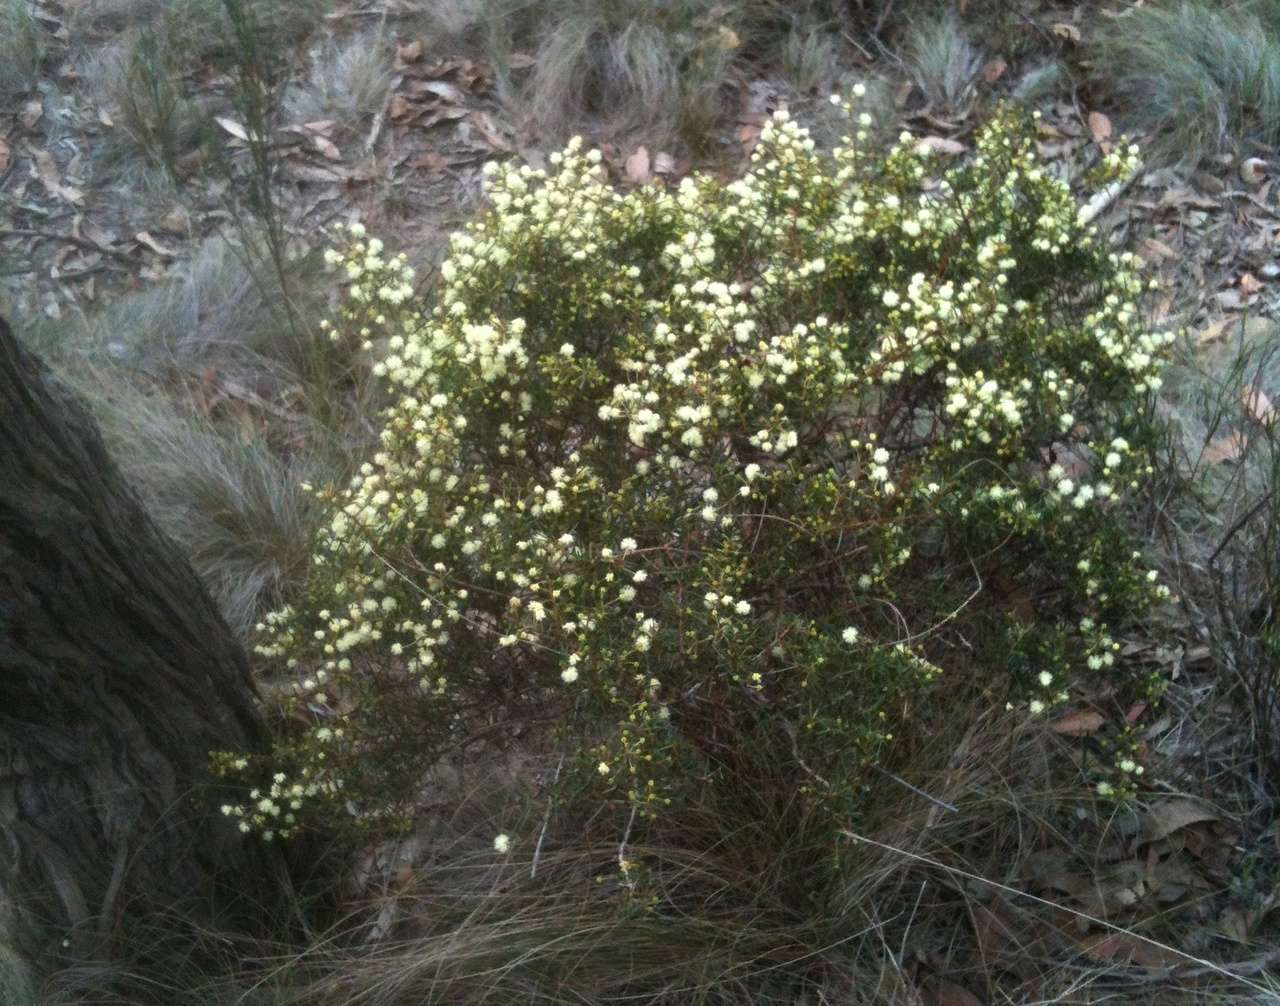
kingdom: Plantae
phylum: Tracheophyta
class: Magnoliopsida
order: Fabales
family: Fabaceae
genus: Acacia
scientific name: Acacia genistifolia
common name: Early wattle
